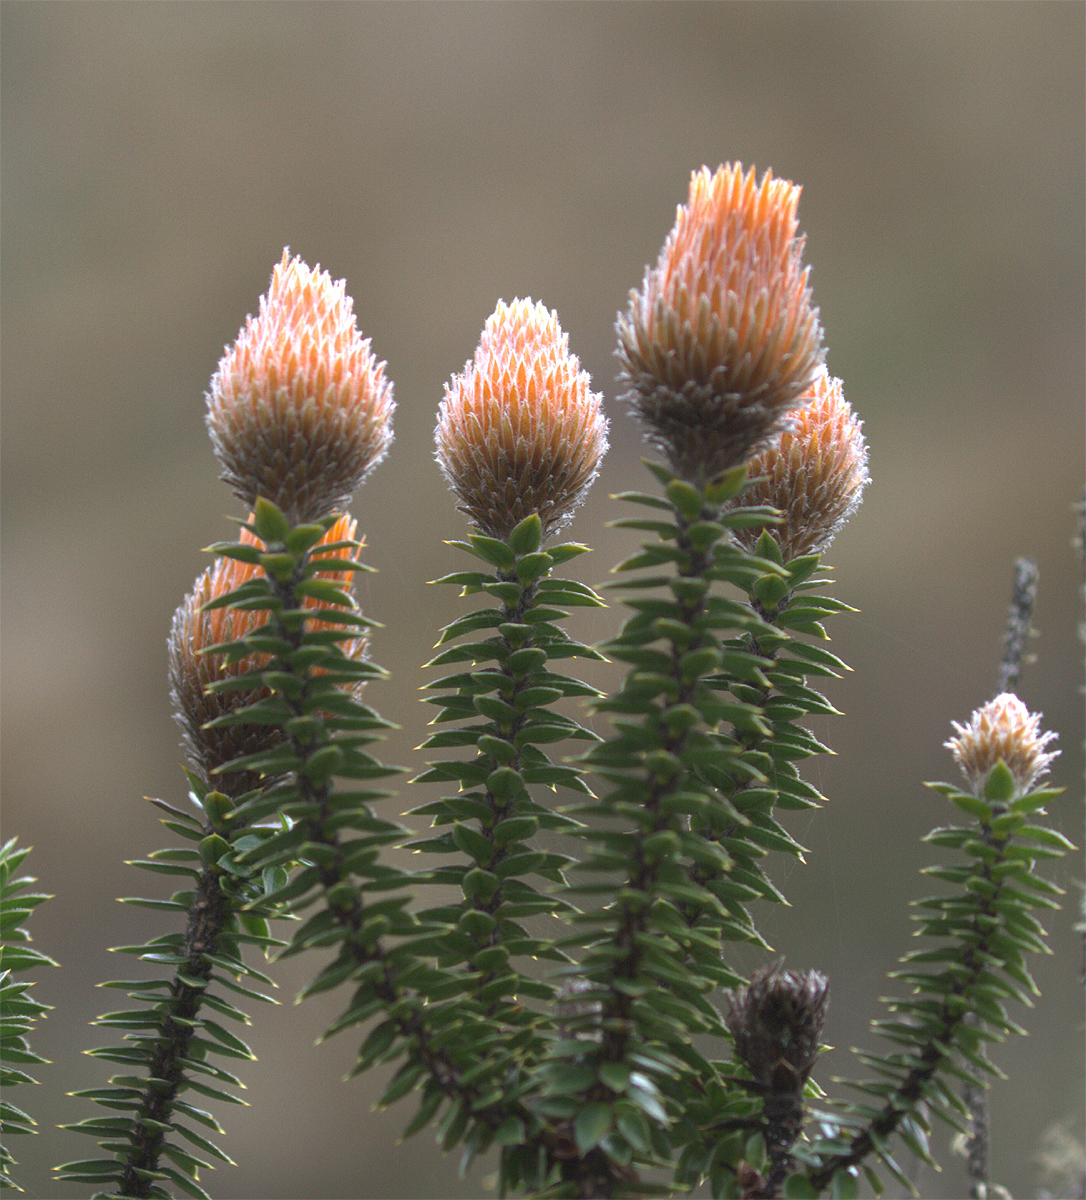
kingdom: Plantae
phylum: Tracheophyta
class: Magnoliopsida
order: Asterales
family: Asteraceae
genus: Chuquiraga
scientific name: Chuquiraga jussieui
